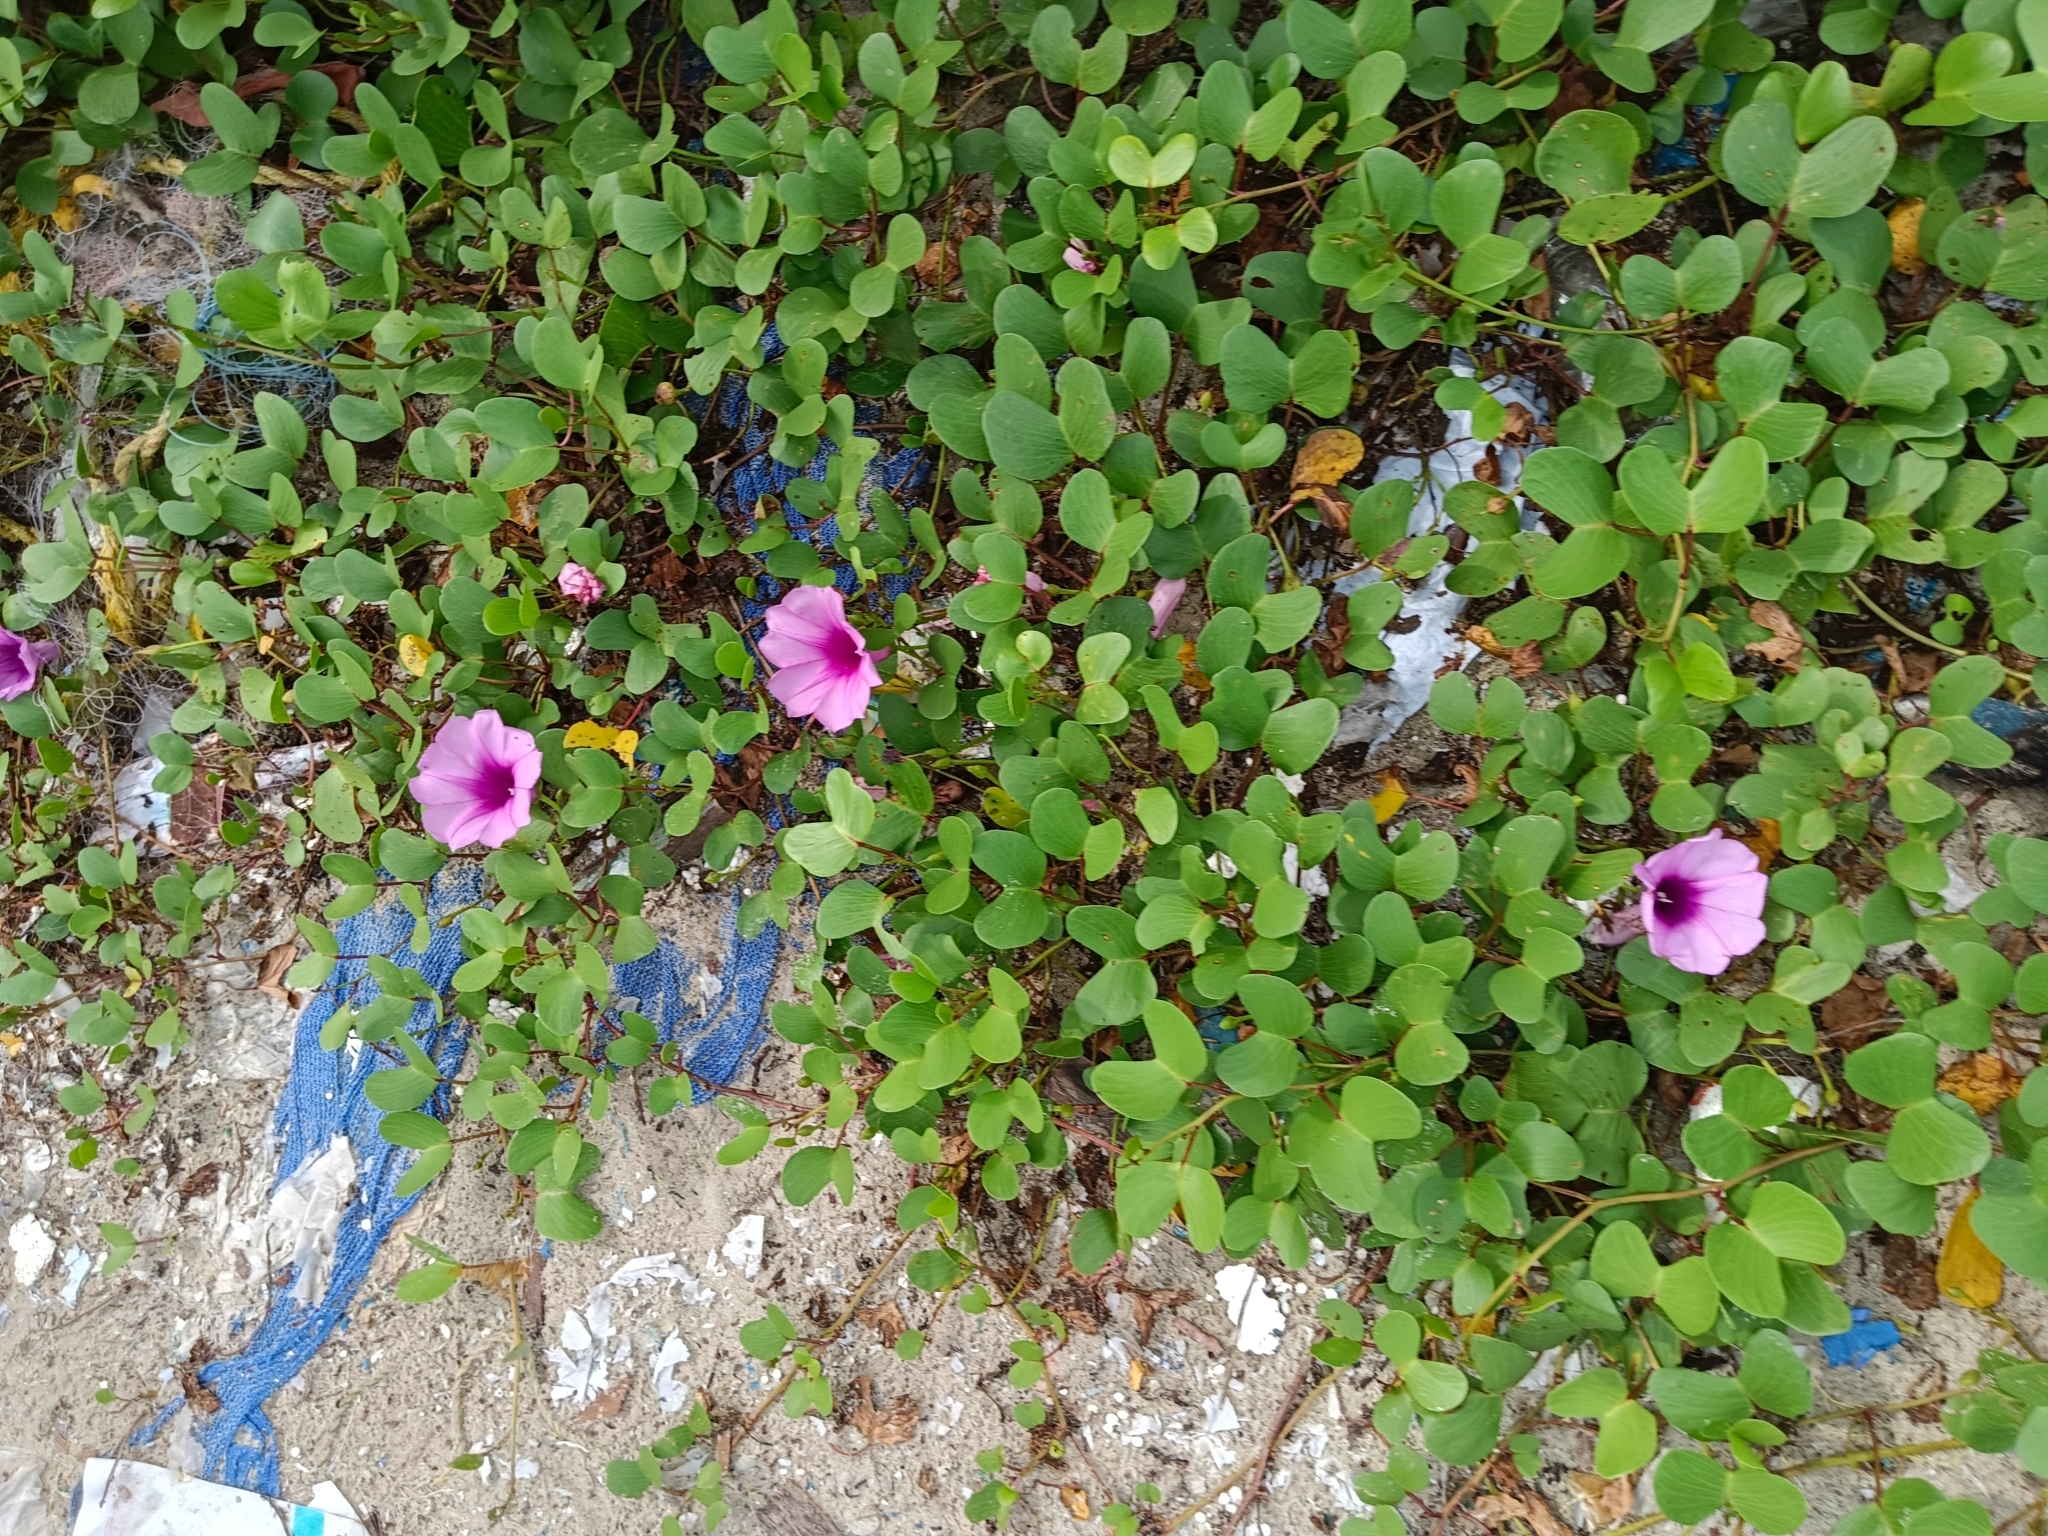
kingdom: Plantae
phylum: Tracheophyta
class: Magnoliopsida
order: Solanales
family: Convolvulaceae
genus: Ipomoea
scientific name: Ipomoea pes-caprae
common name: Beach morning glory
